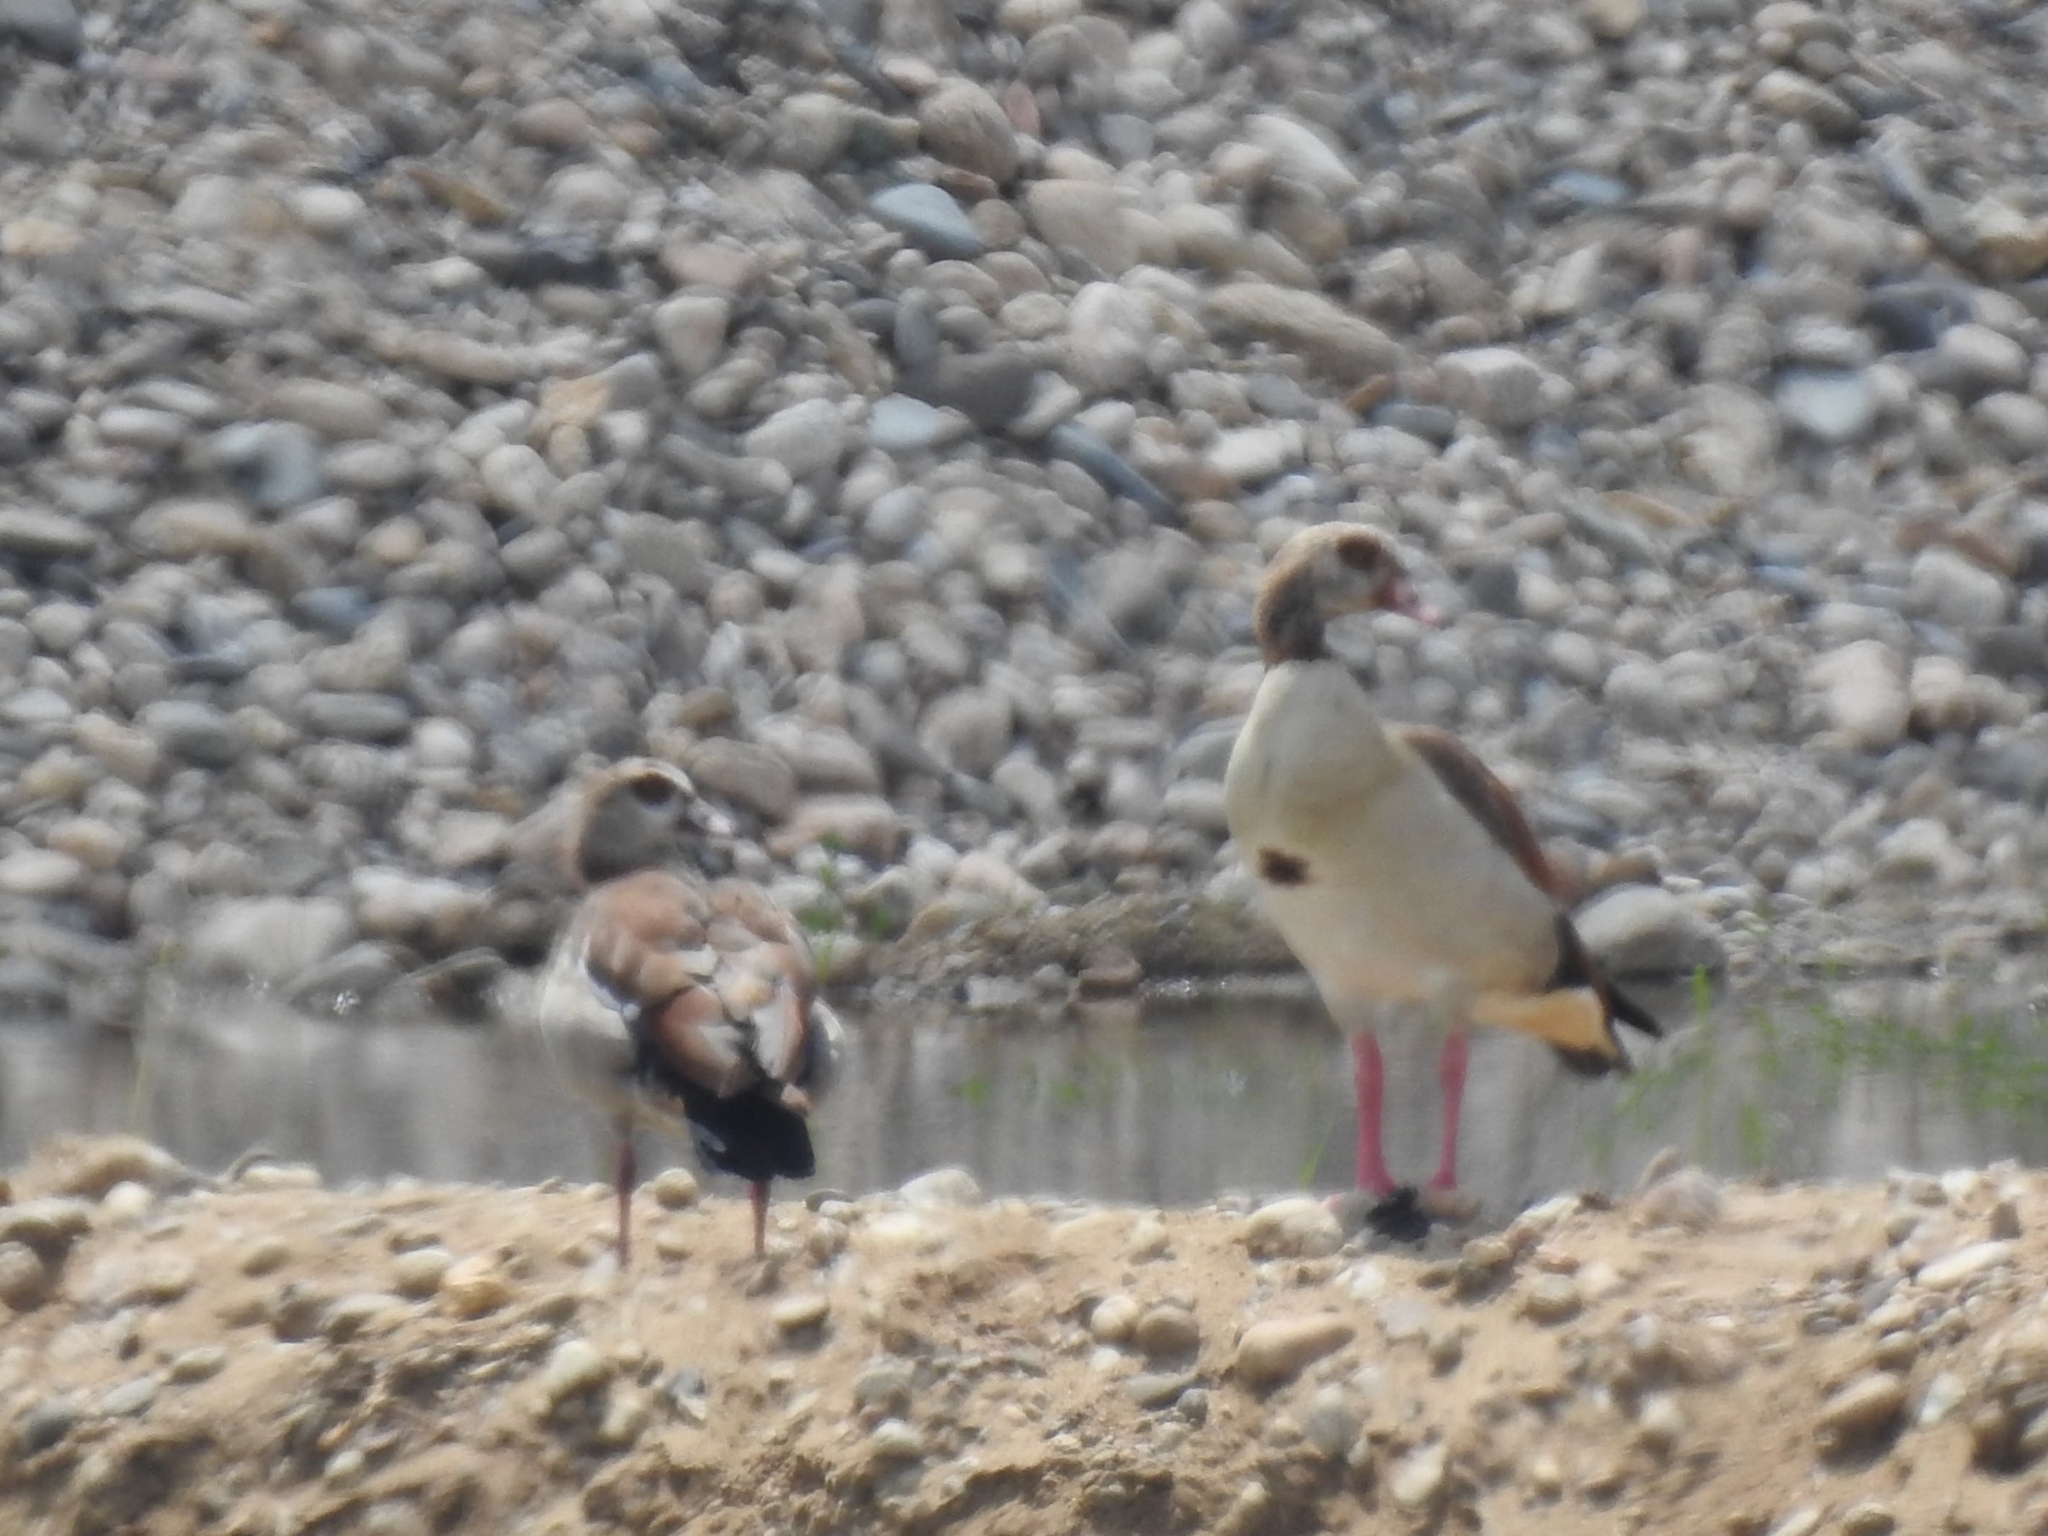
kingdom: Animalia
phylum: Chordata
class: Aves
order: Anseriformes
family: Anatidae
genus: Alopochen
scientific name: Alopochen aegyptiaca
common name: Egyptian goose
